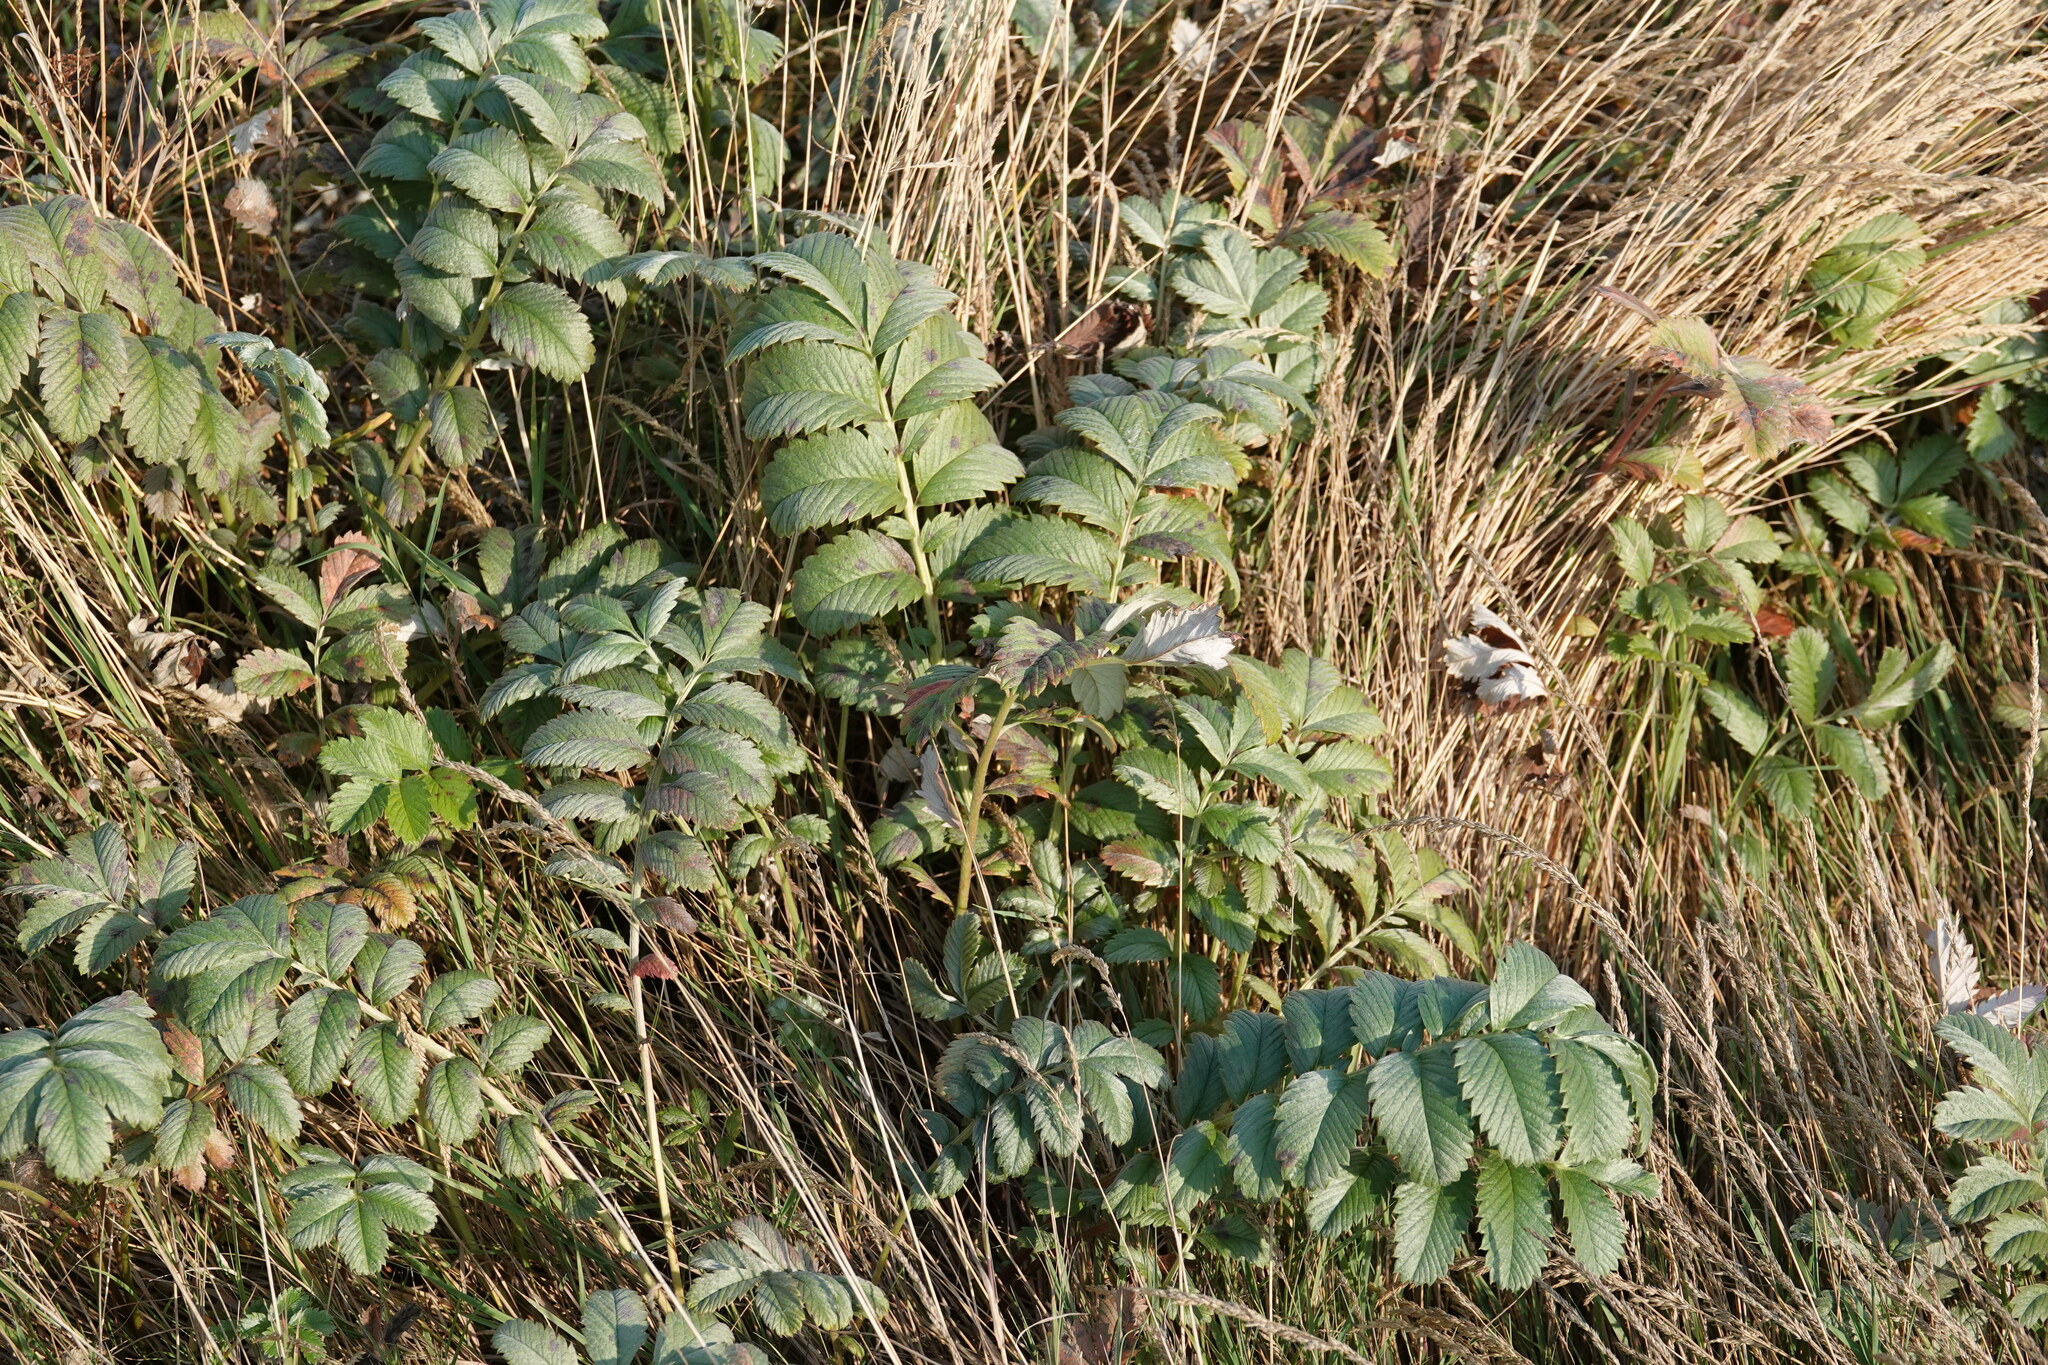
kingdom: Plantae
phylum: Tracheophyta
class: Magnoliopsida
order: Rosales
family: Rosaceae
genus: Argentina
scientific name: Argentina anserina
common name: Common silverweed
